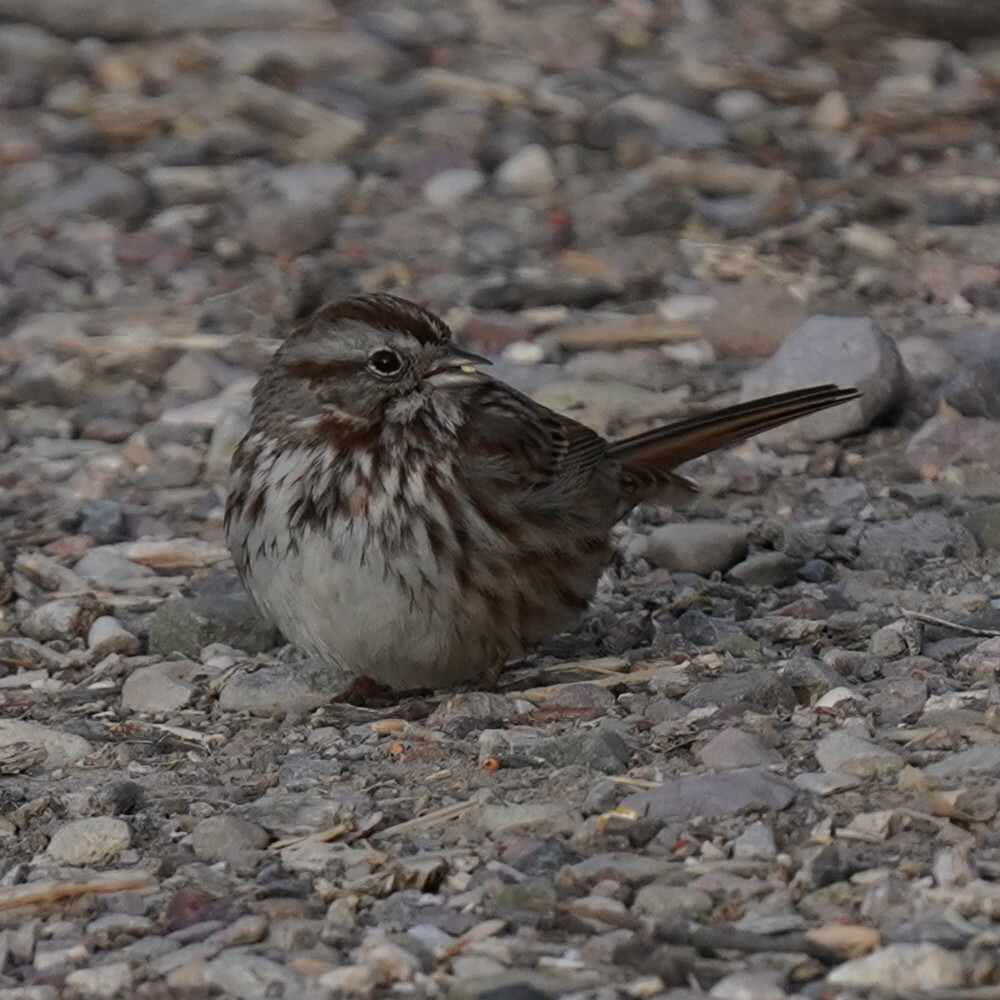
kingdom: Animalia
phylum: Chordata
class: Aves
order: Passeriformes
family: Passerellidae
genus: Melospiza
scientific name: Melospiza melodia
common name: Song sparrow
